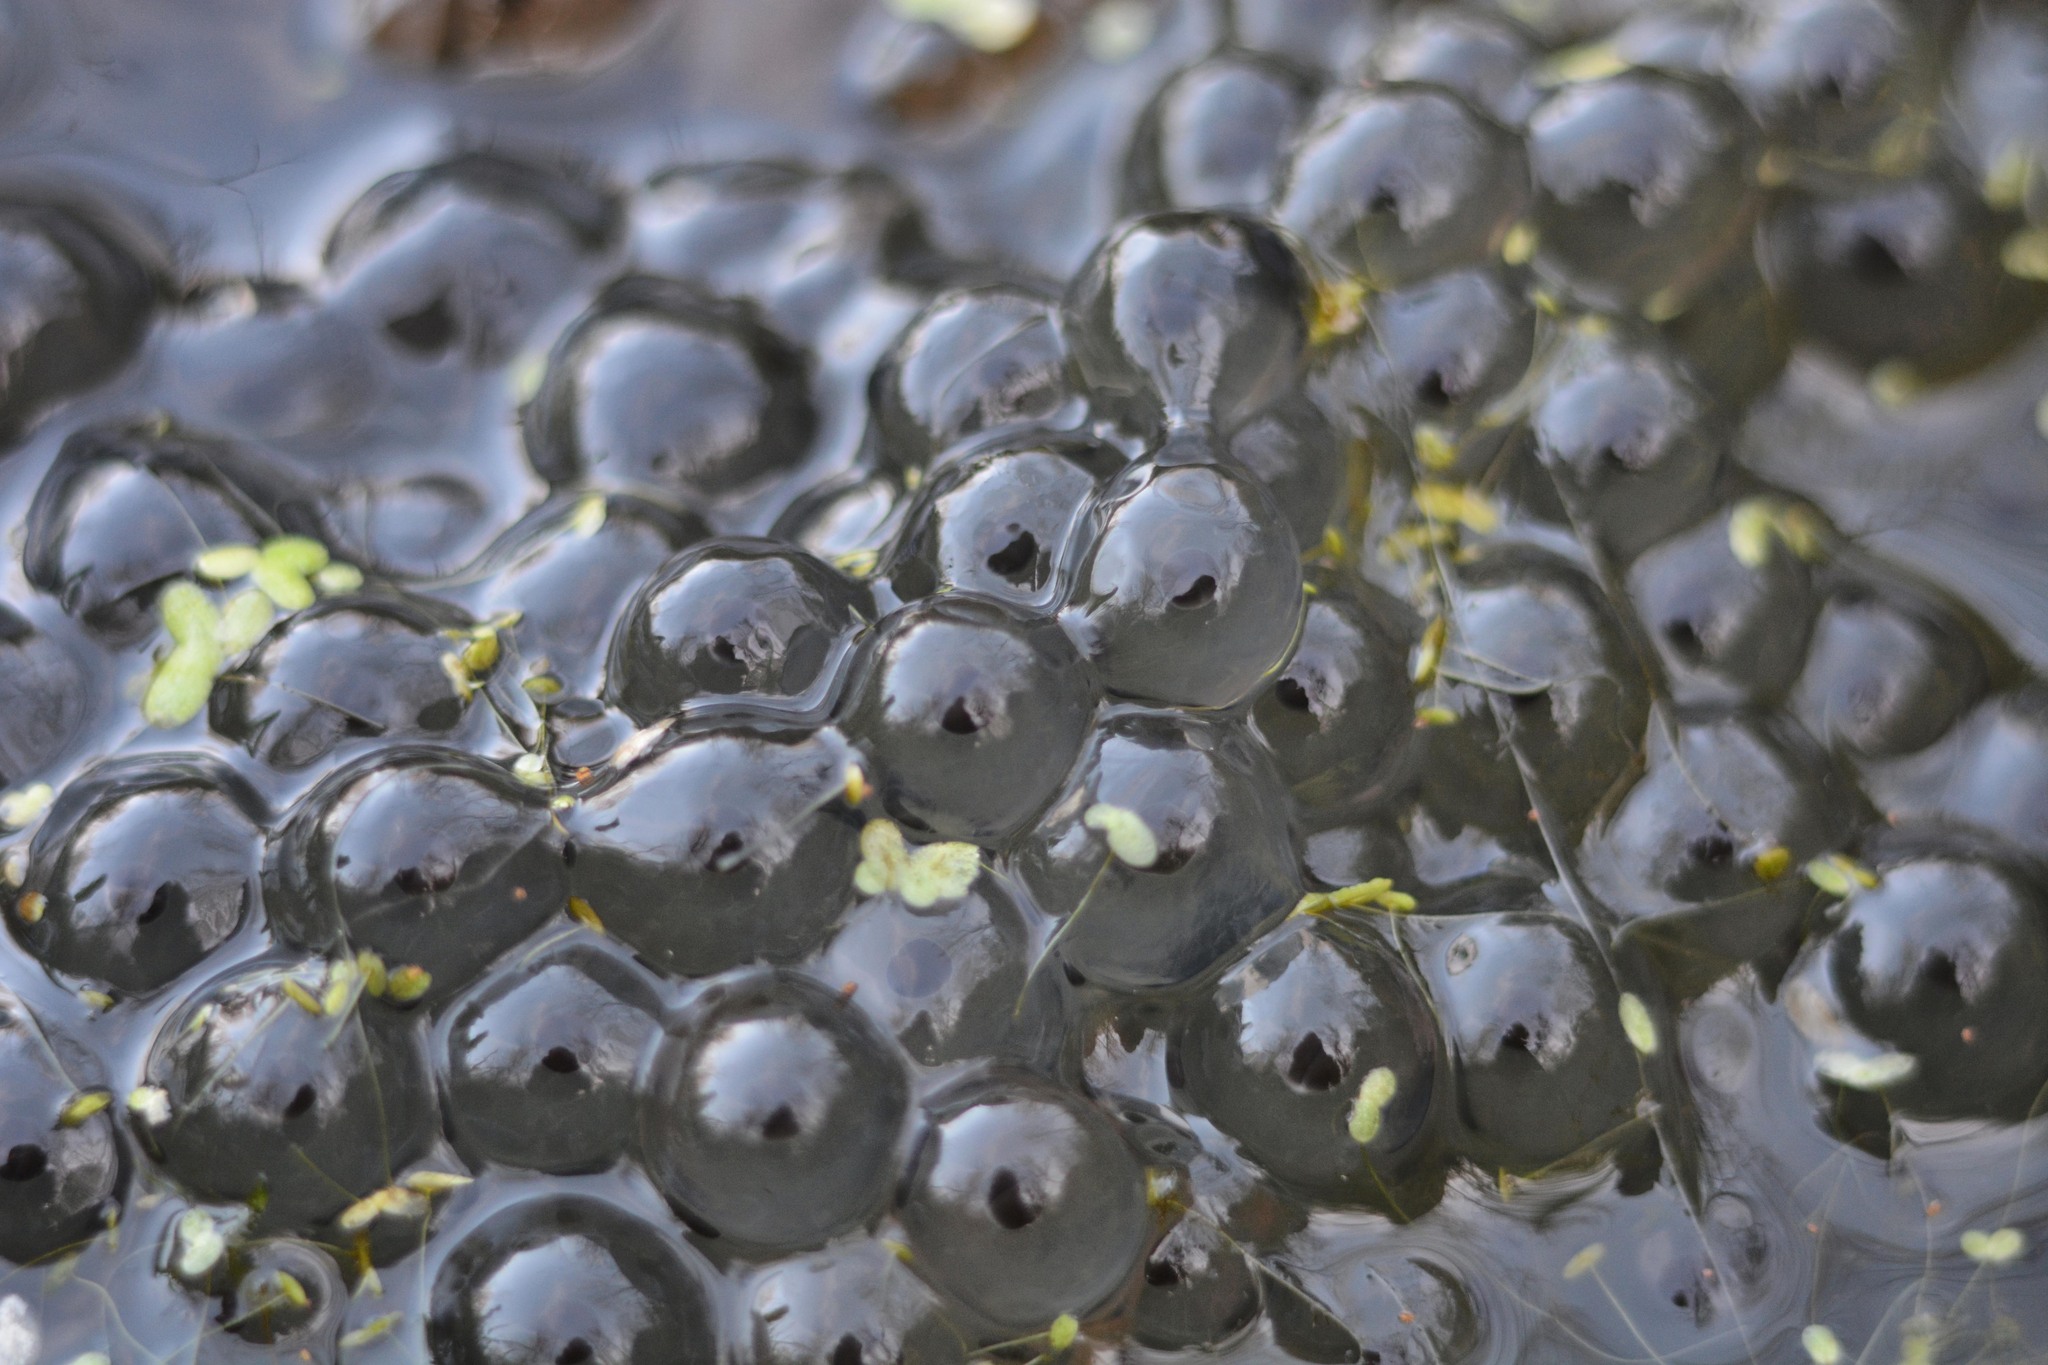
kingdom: Animalia
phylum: Chordata
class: Amphibia
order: Anura
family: Ranidae
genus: Rana
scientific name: Rana temporaria
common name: Common frog
